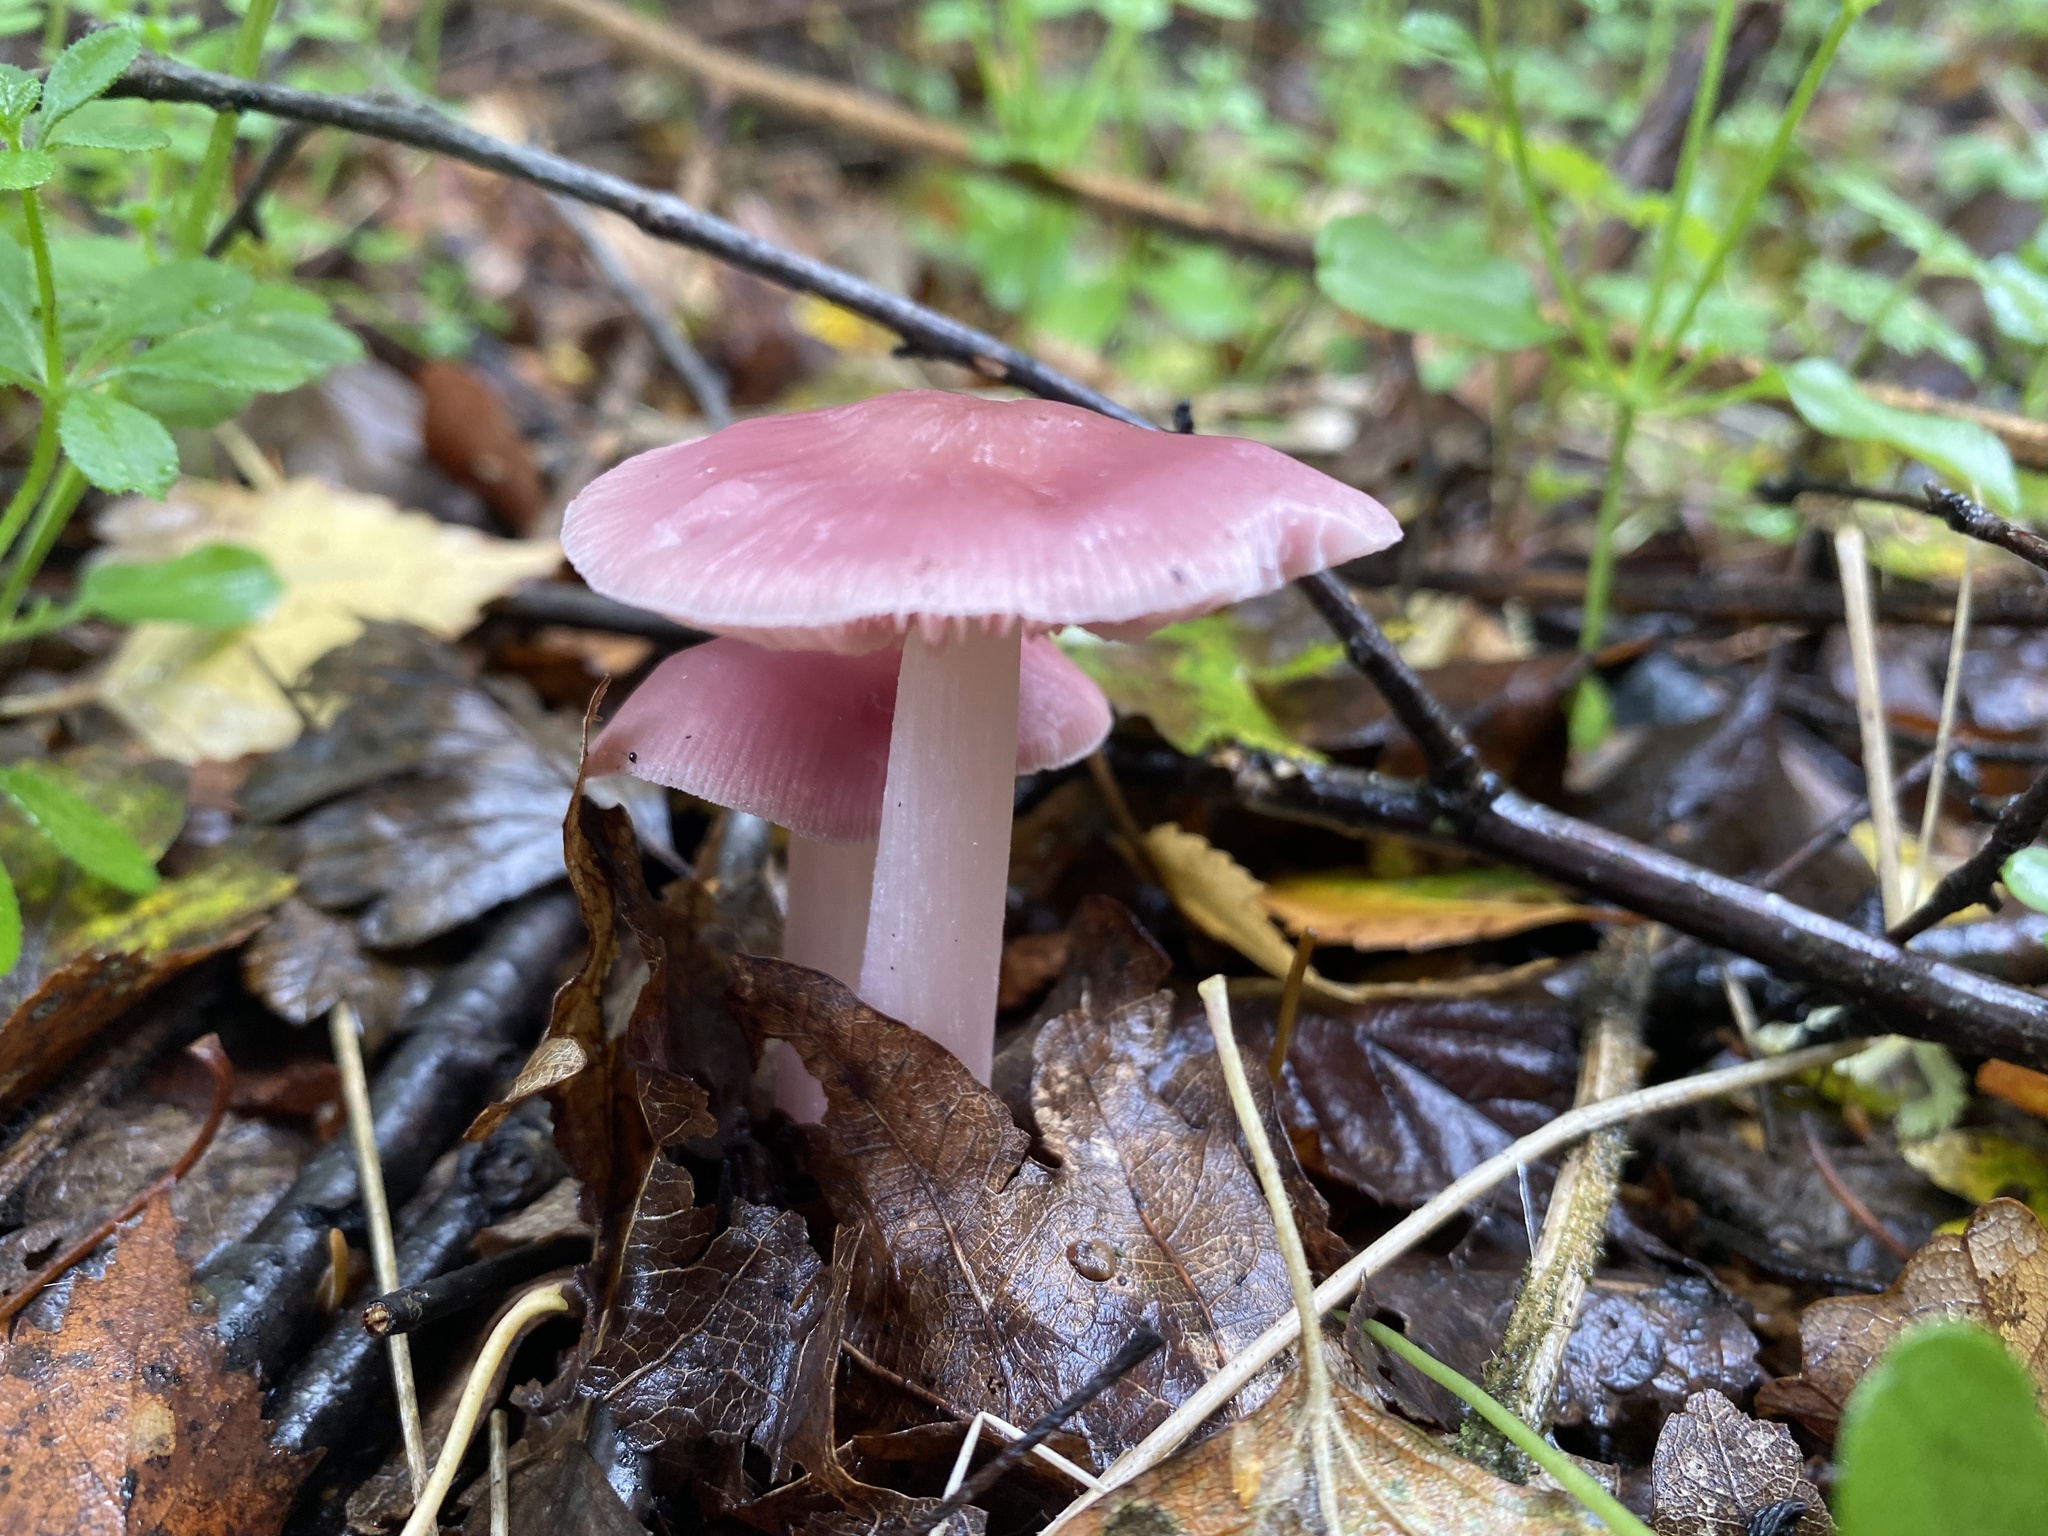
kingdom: Fungi
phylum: Basidiomycota
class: Agaricomycetes
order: Agaricales
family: Mycenaceae
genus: Mycena
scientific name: Mycena rosea
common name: Rosy bonnet
